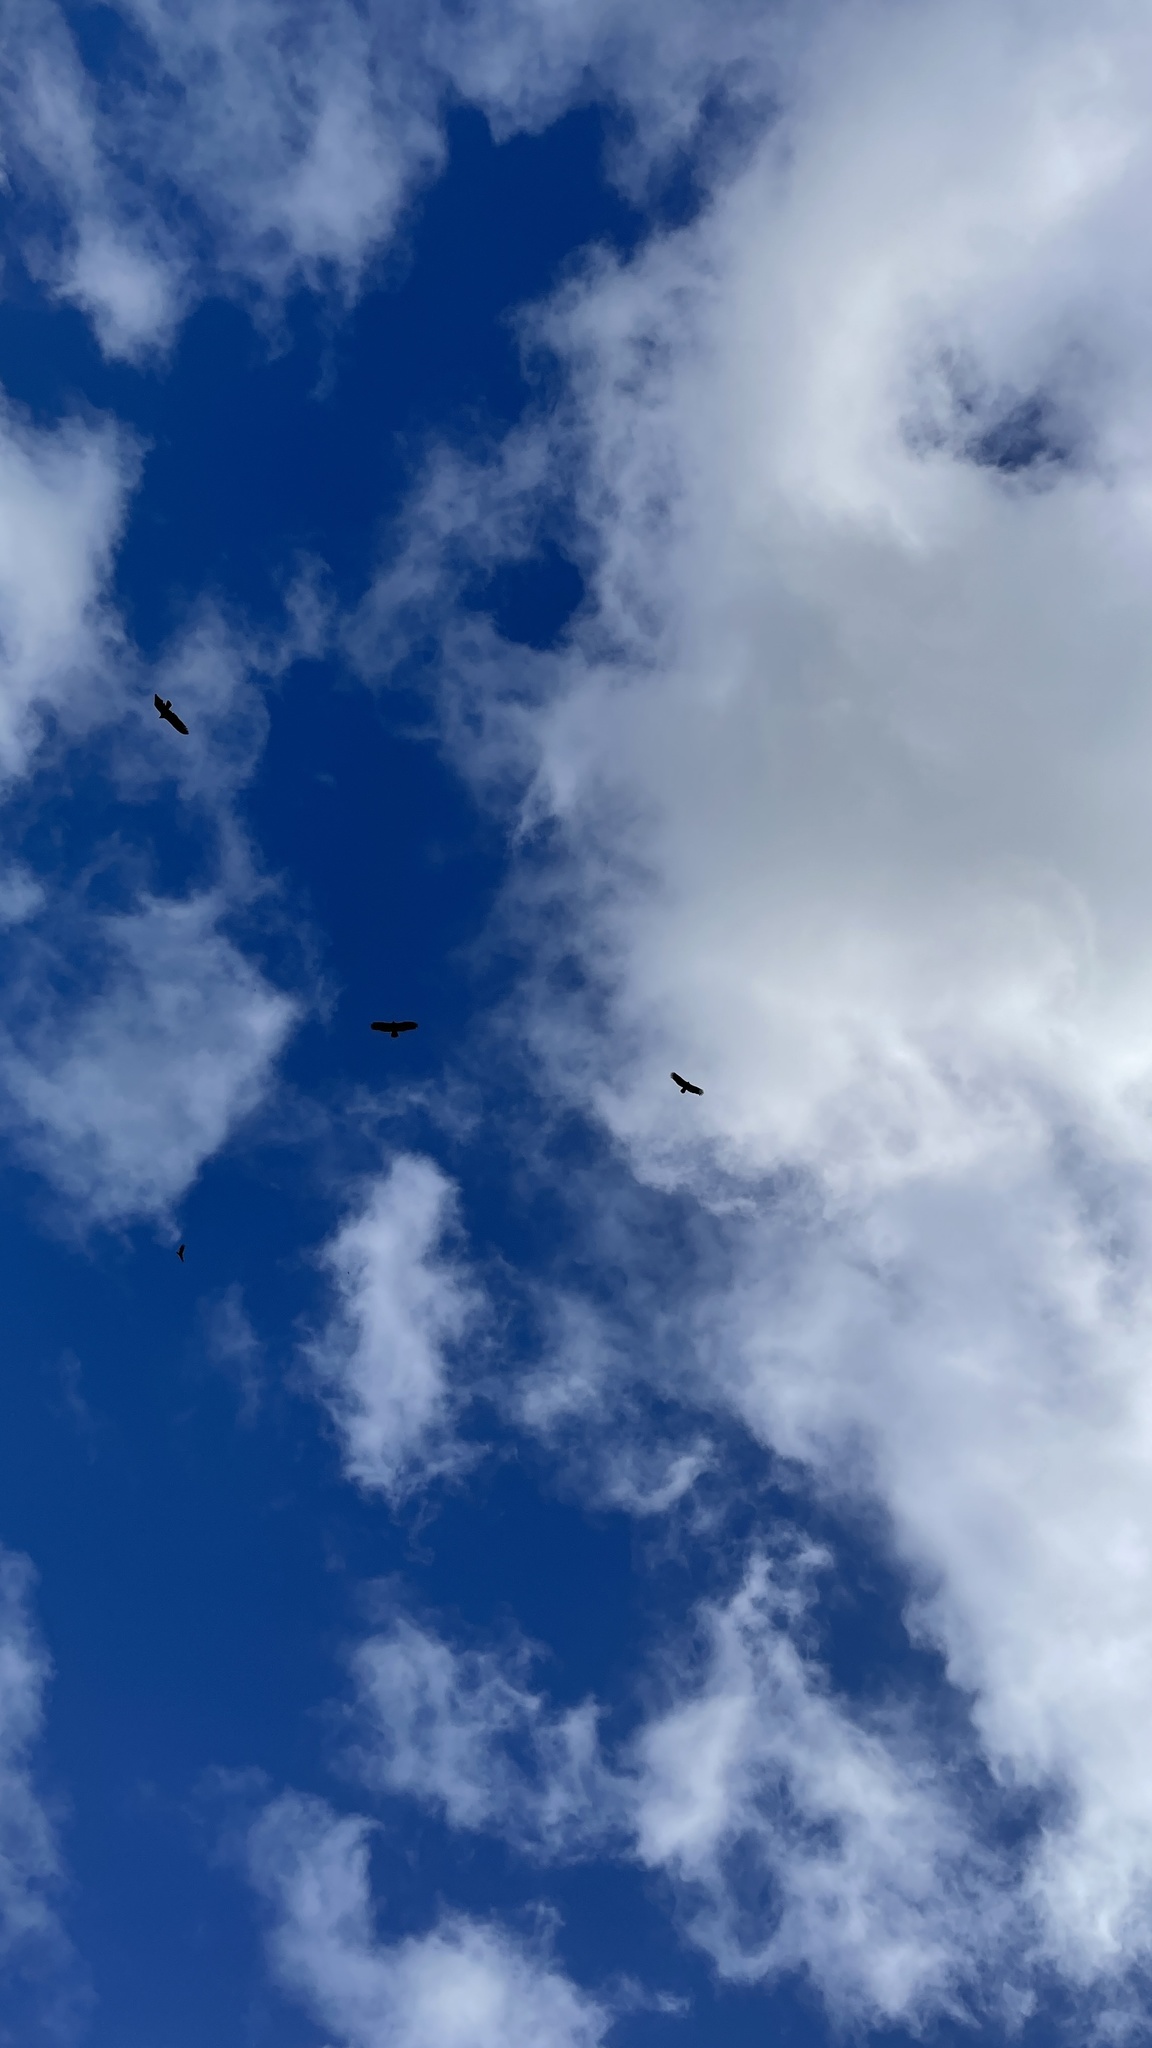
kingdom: Animalia
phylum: Chordata
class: Aves
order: Accipitriformes
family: Cathartidae
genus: Cathartes
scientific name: Cathartes aura
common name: Turkey vulture
